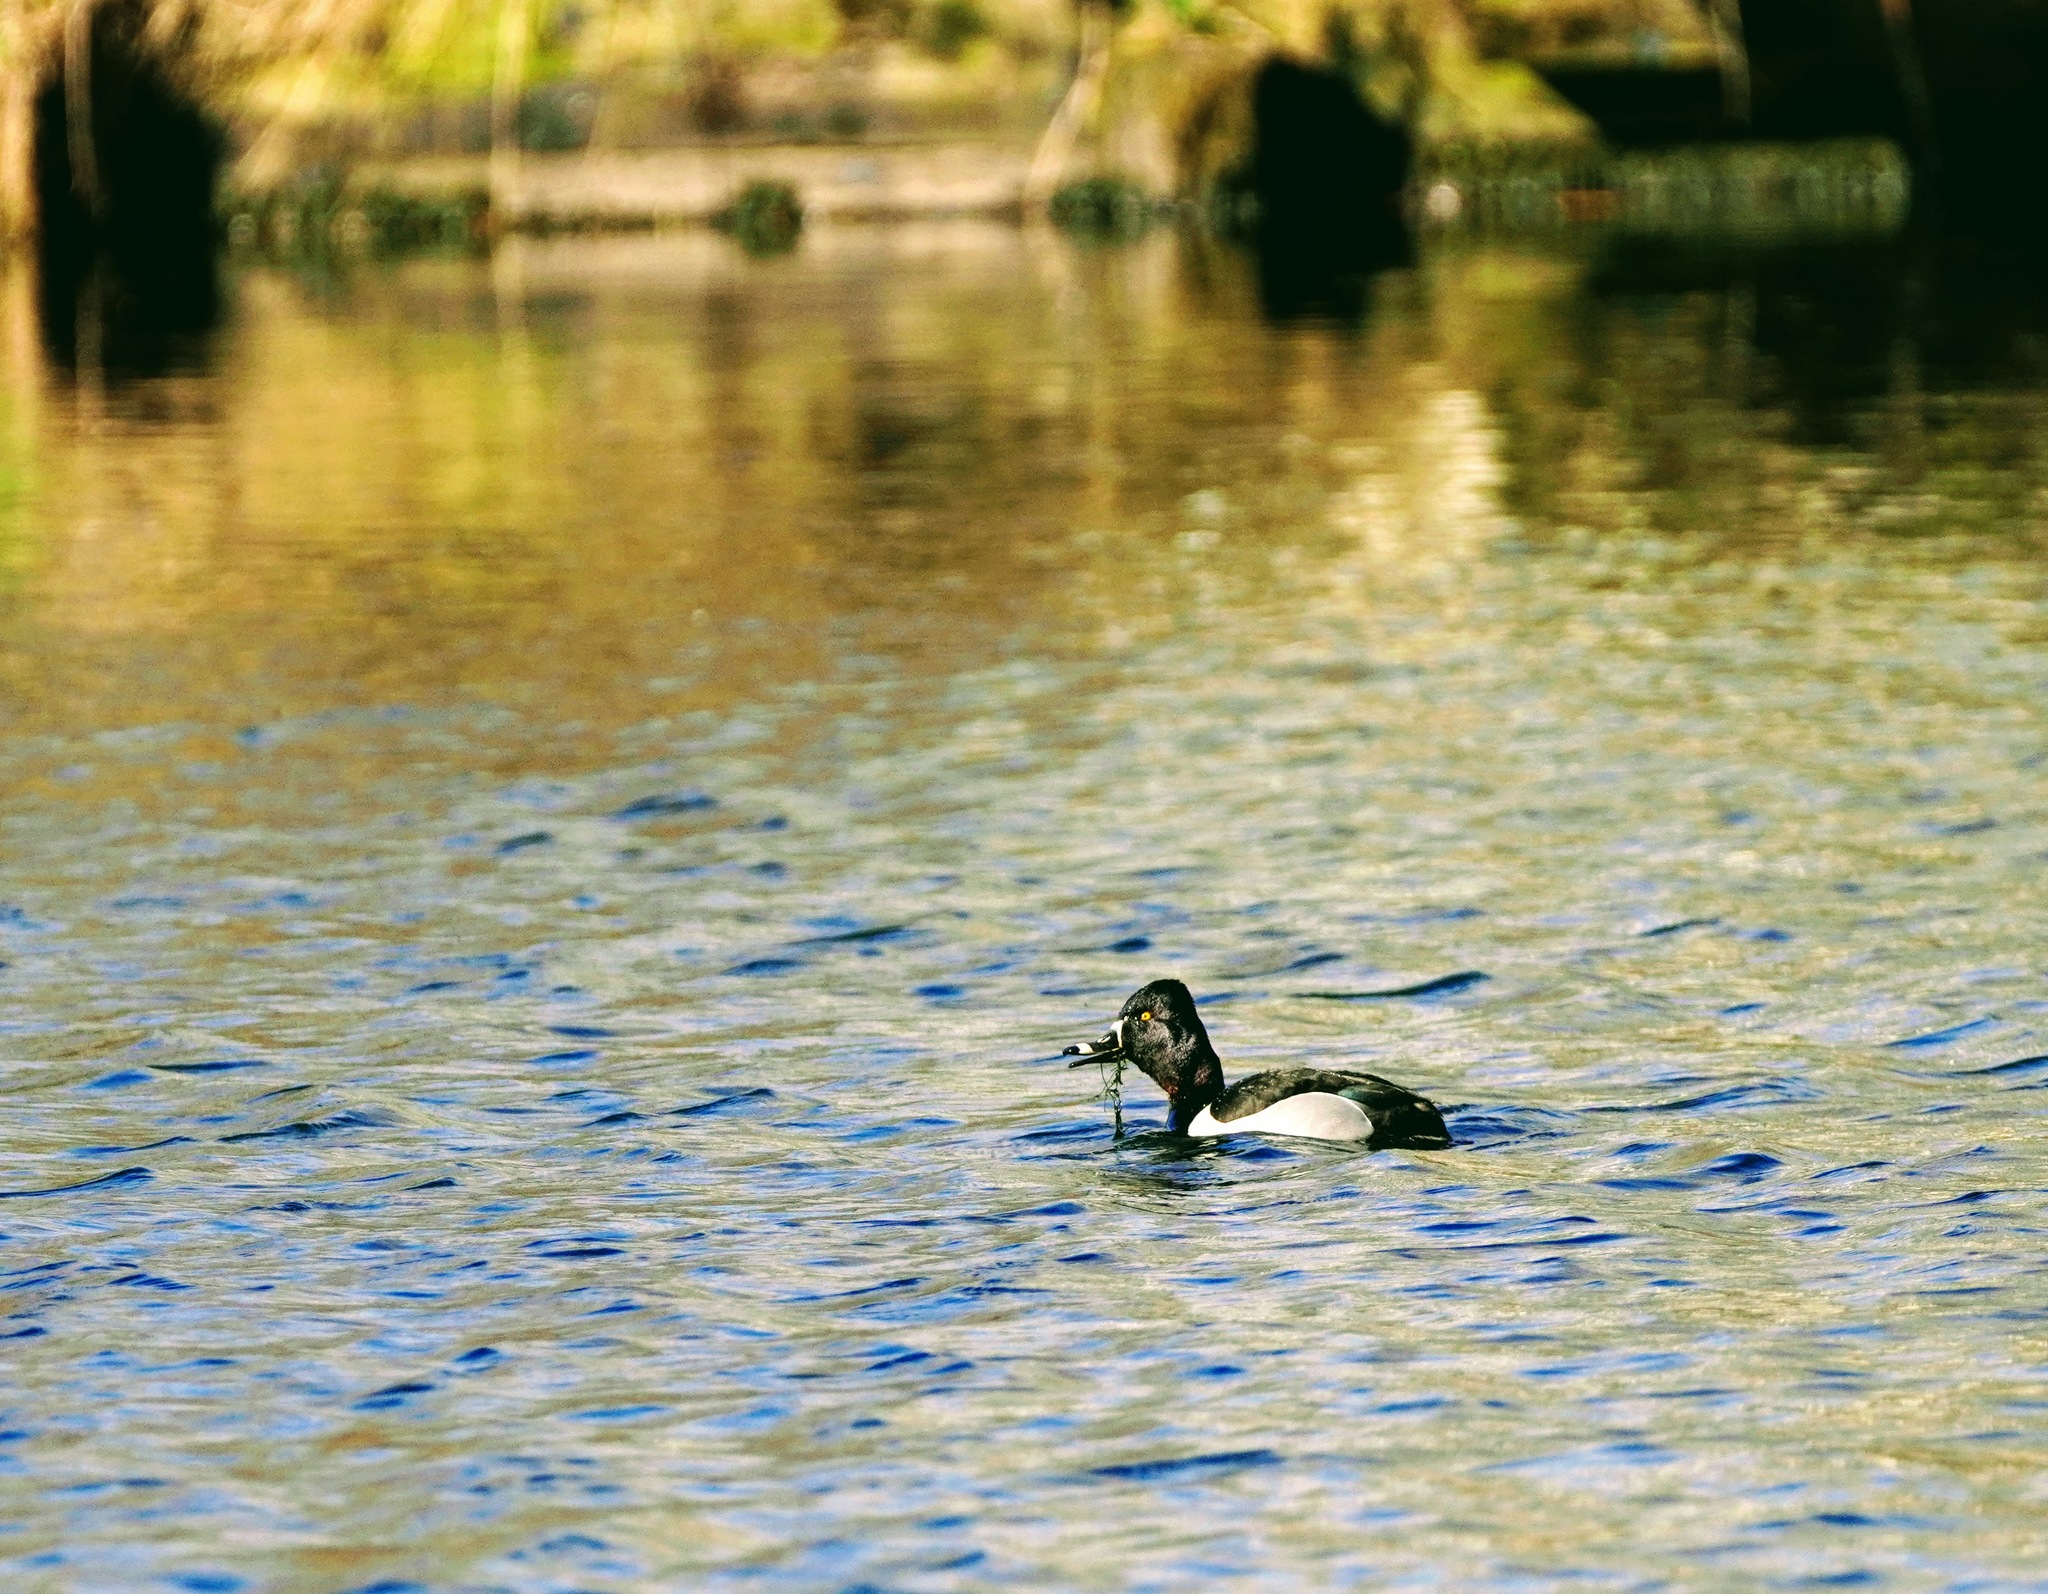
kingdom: Animalia
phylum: Chordata
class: Aves
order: Anseriformes
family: Anatidae
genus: Aythya
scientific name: Aythya collaris
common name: Ring-necked duck
